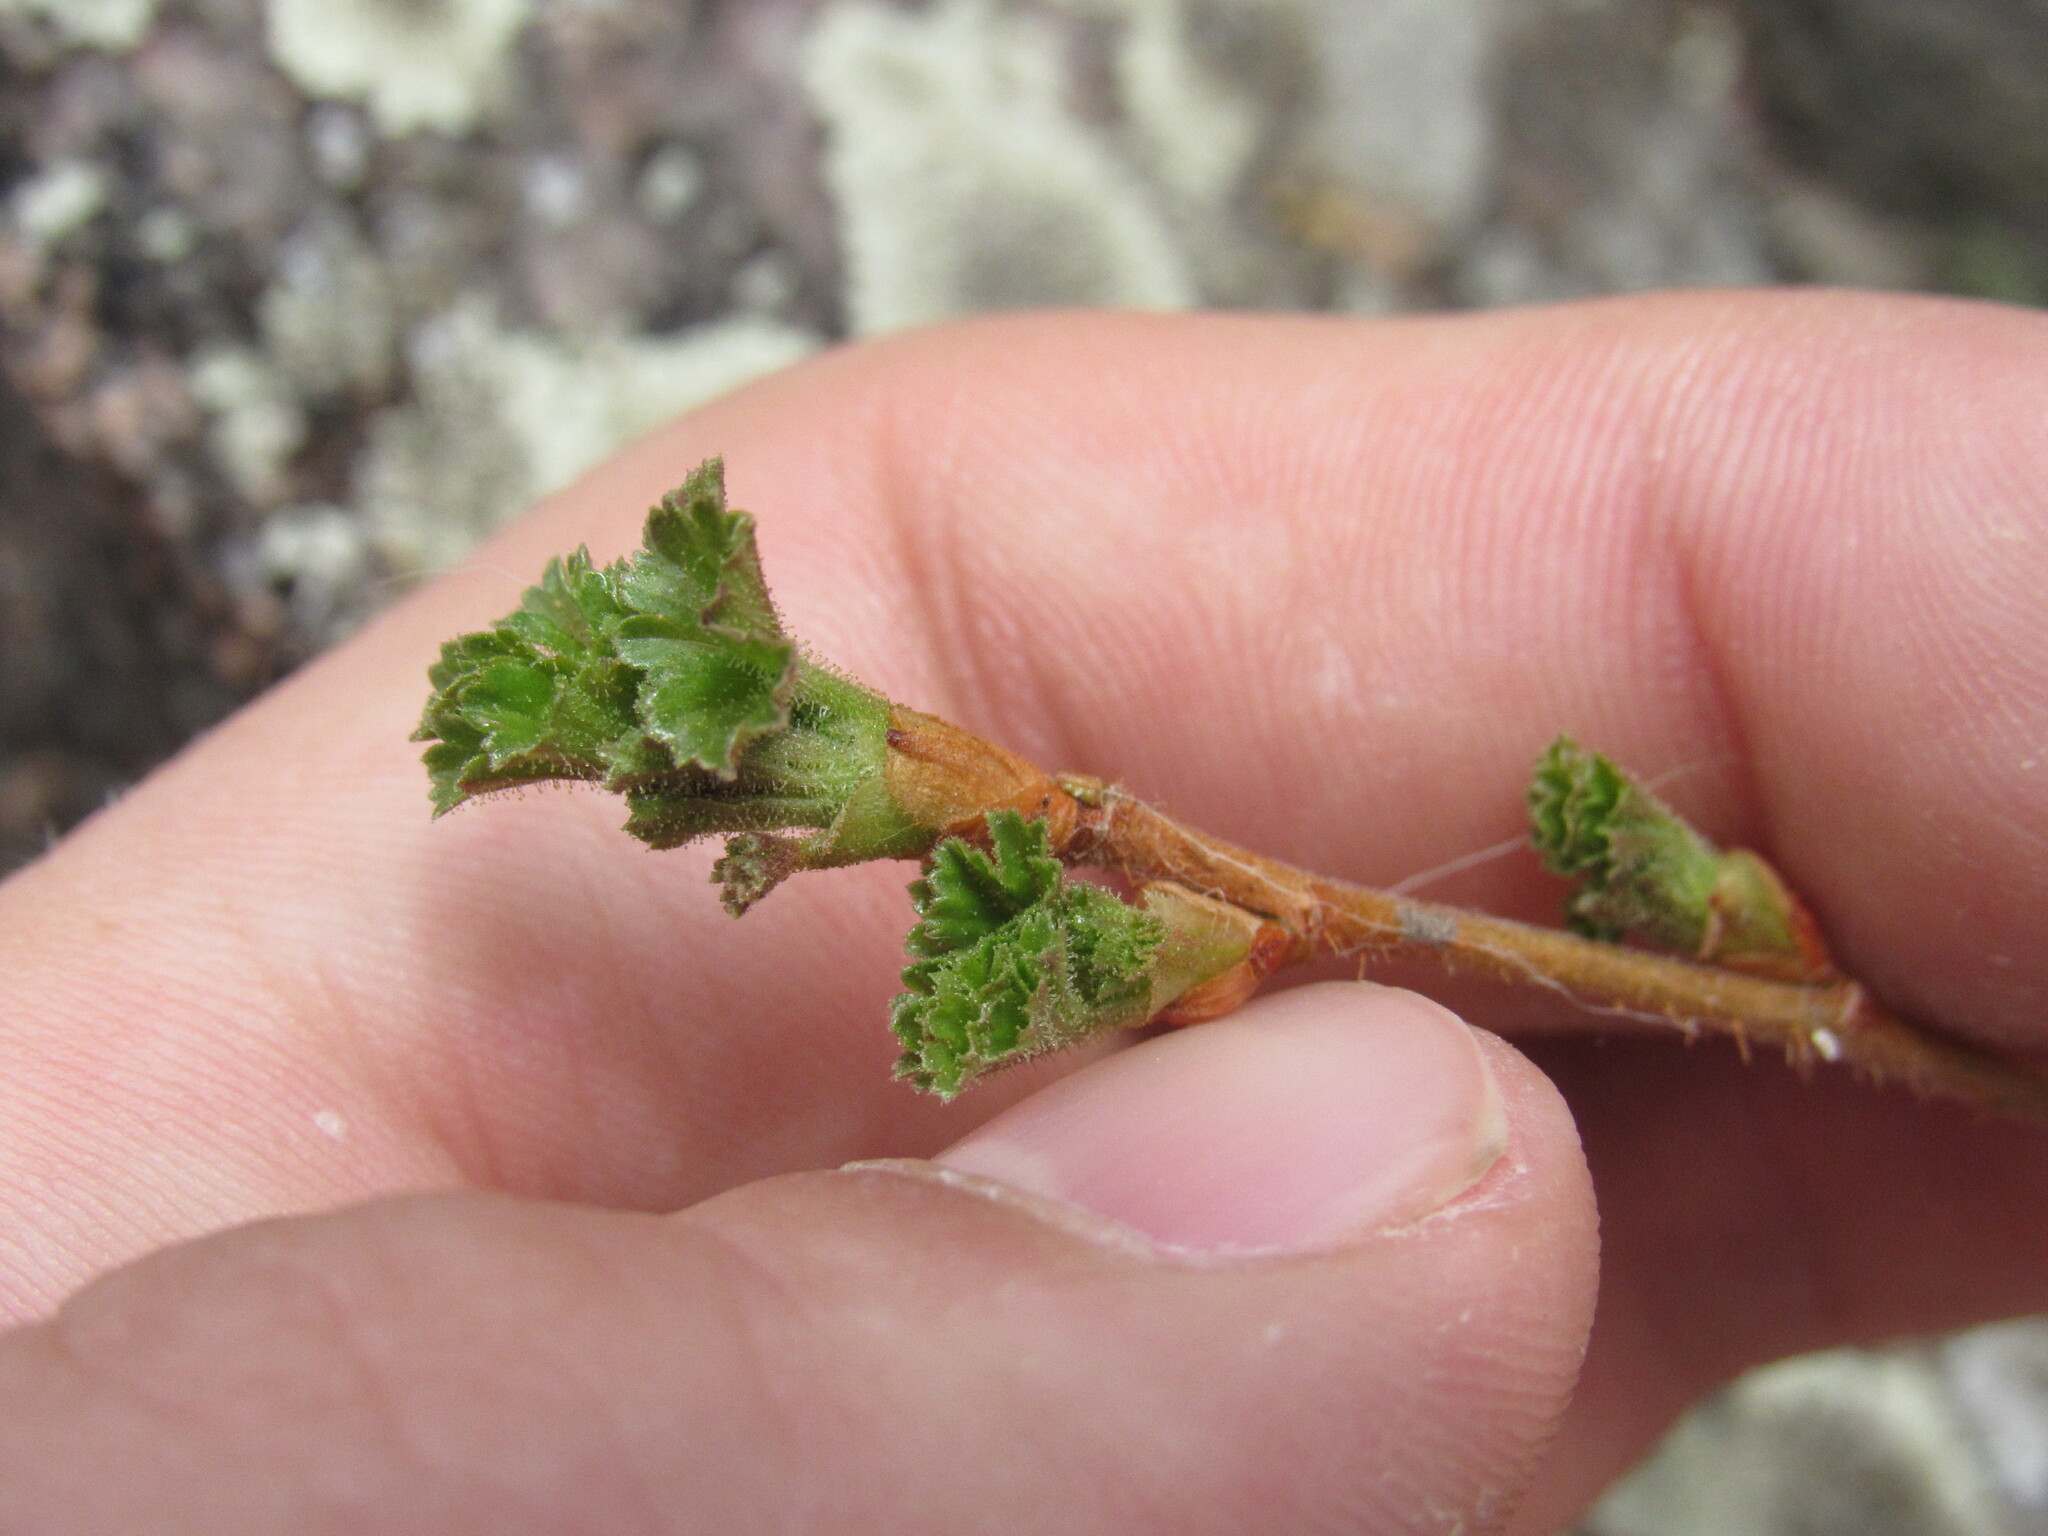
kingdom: Plantae
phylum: Tracheophyta
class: Magnoliopsida
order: Saxifragales
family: Grossulariaceae
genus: Ribes
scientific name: Ribes cereum
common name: Wax currant
